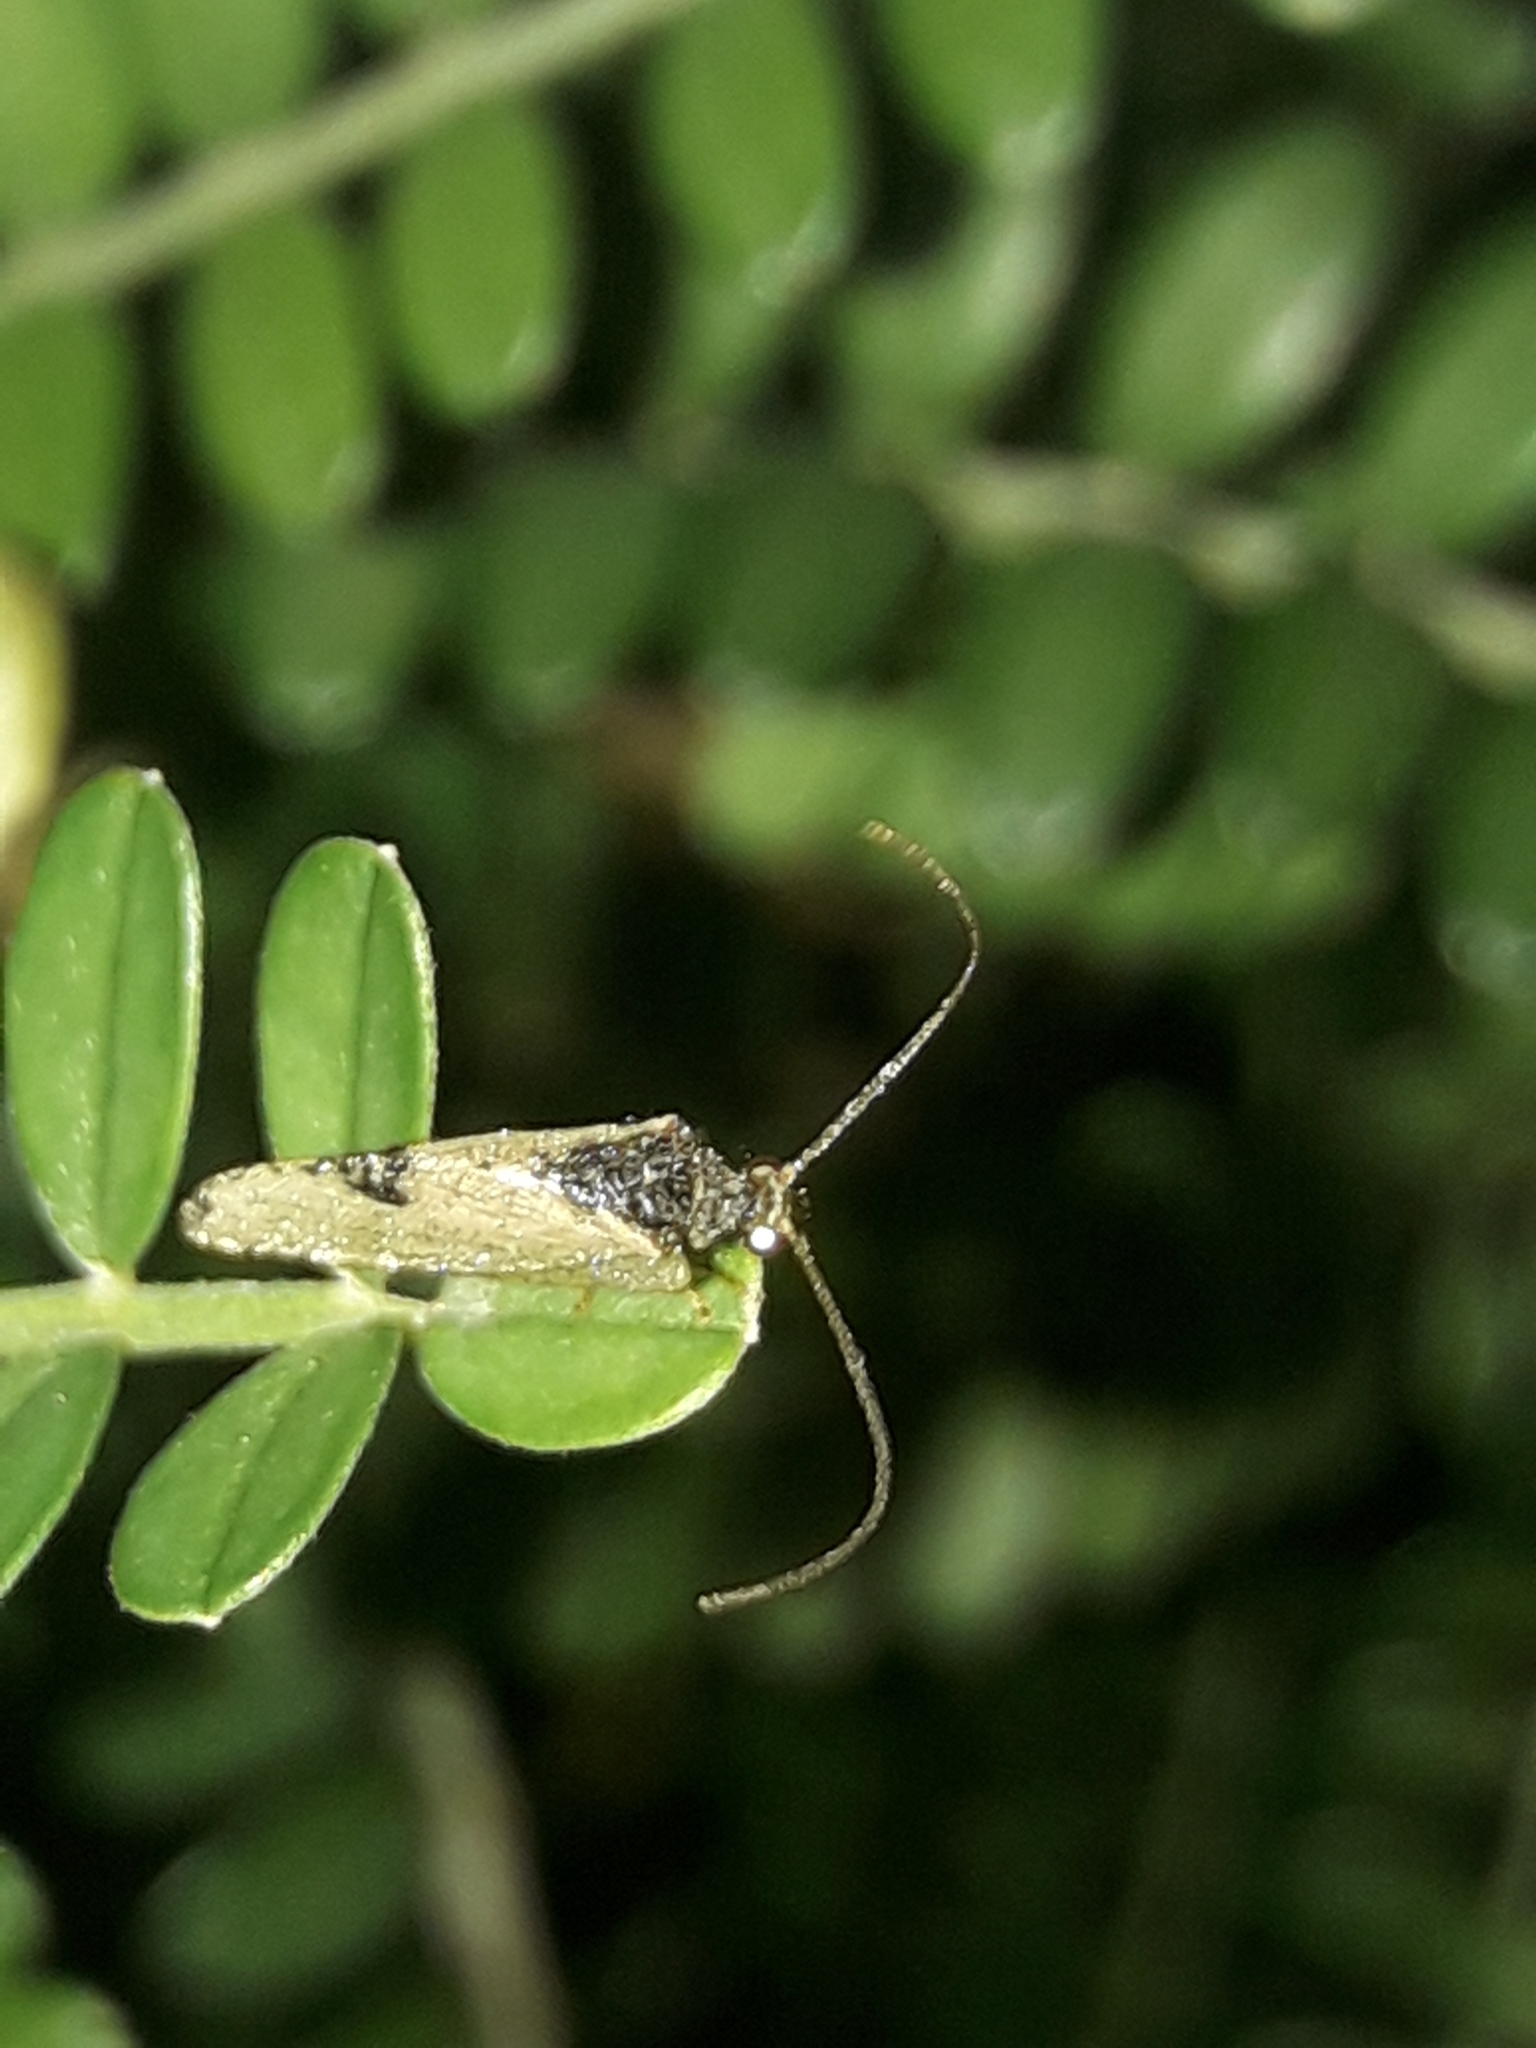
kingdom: Animalia
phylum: Arthropoda
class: Insecta
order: Neuroptera
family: Hemerobiidae
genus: Drepanacra
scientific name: Drepanacra binocula
